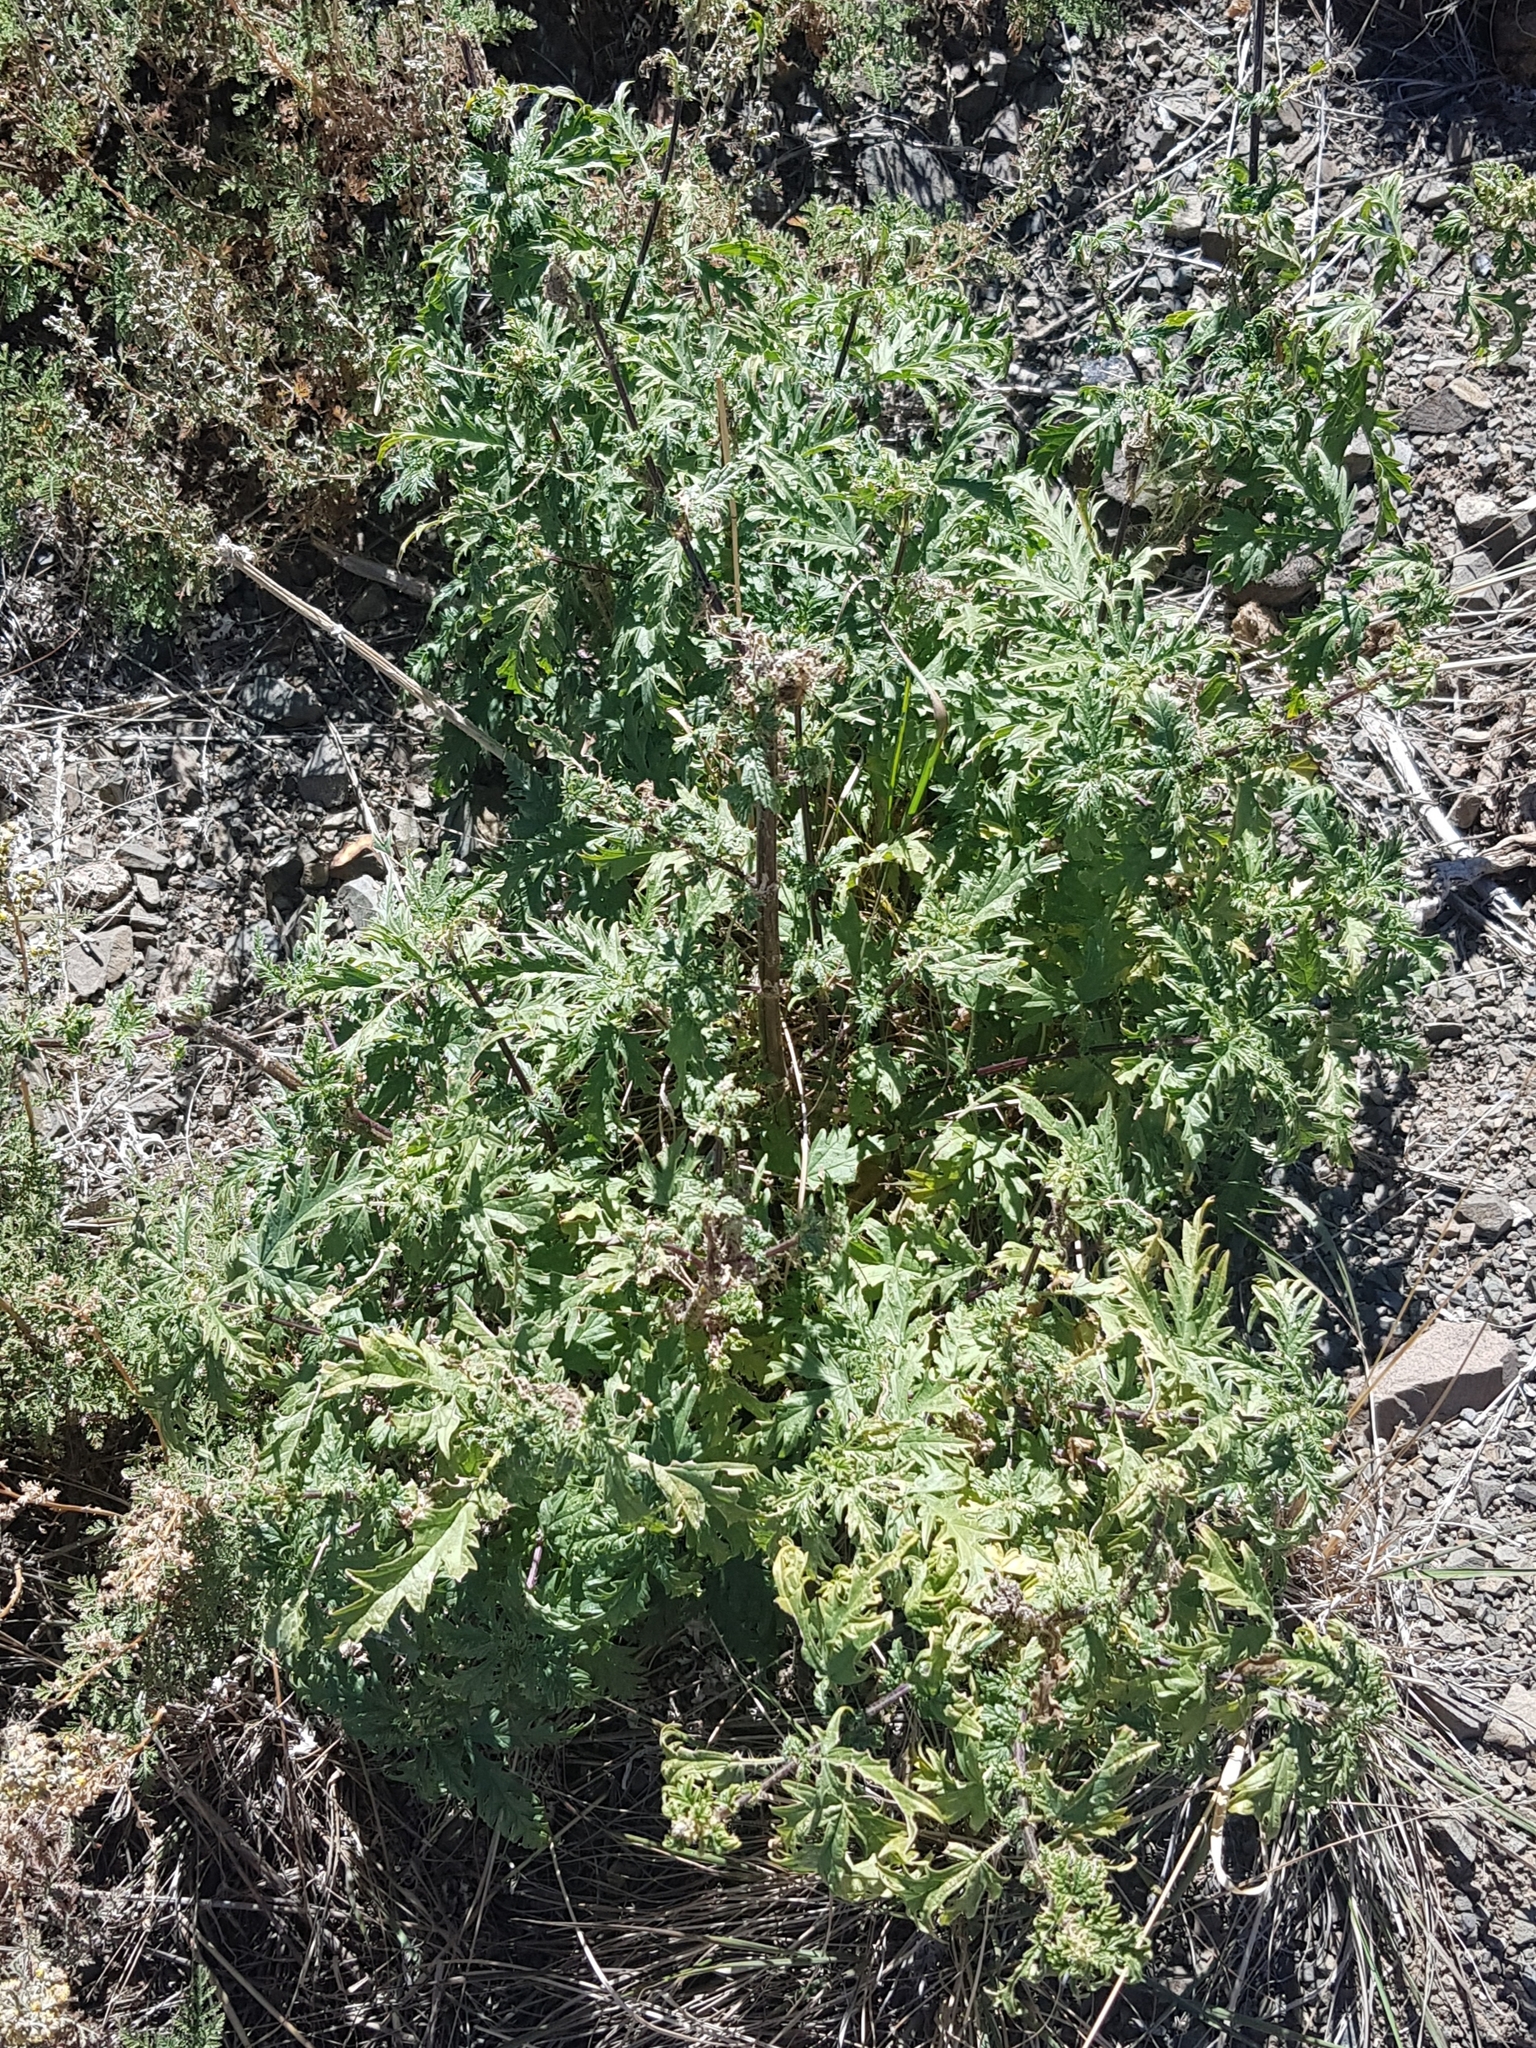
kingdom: Plantae
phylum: Tracheophyta
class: Magnoliopsida
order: Rosales
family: Urticaceae
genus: Urtica
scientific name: Urtica cannabina
